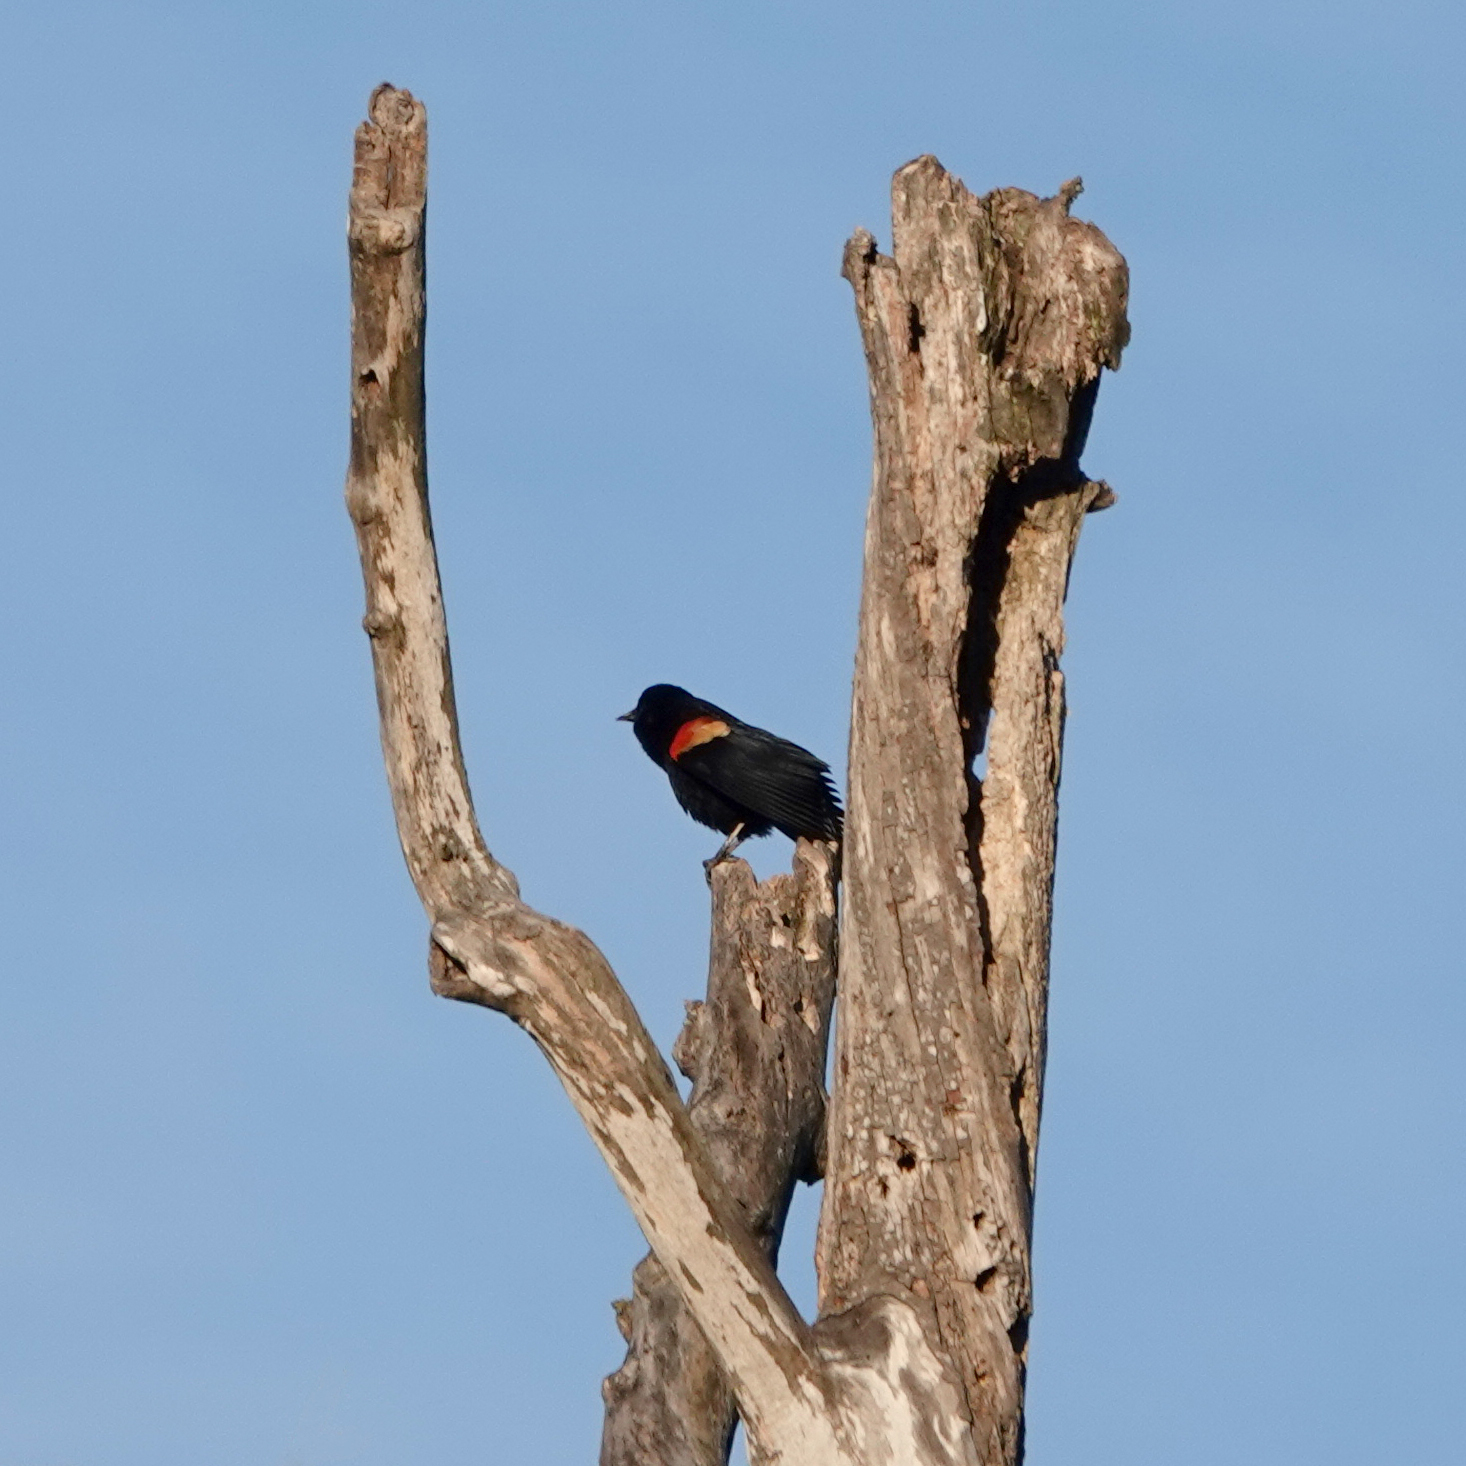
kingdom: Animalia
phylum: Chordata
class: Aves
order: Passeriformes
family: Icteridae
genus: Agelaius
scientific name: Agelaius phoeniceus
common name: Red-winged blackbird
